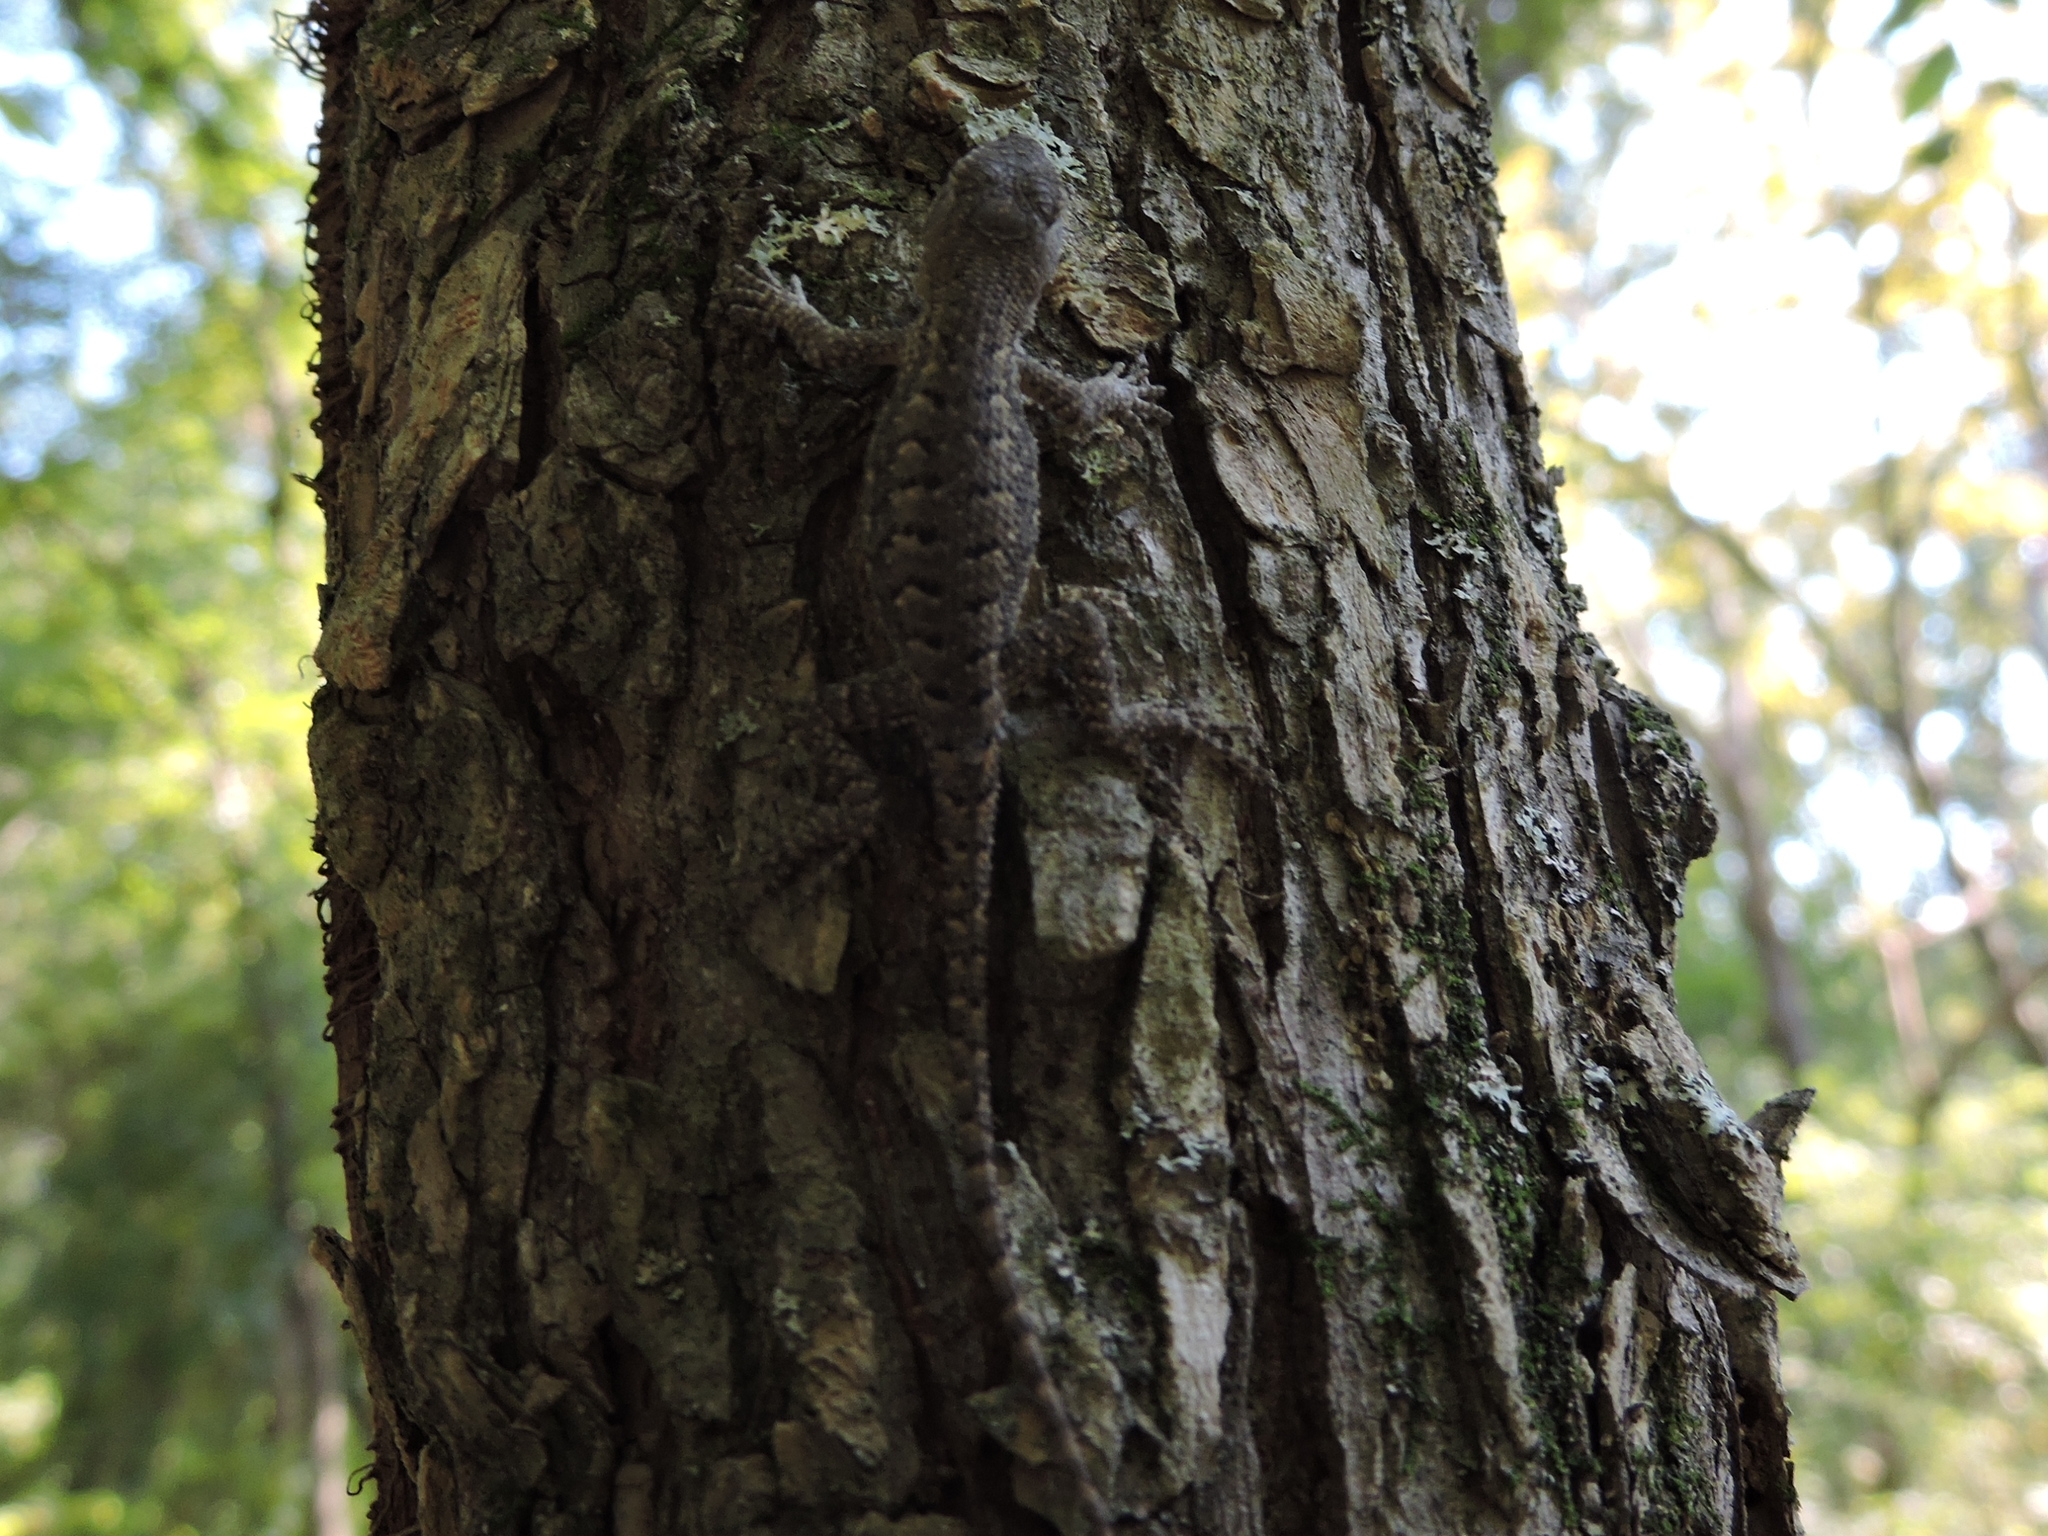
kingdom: Animalia
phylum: Chordata
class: Squamata
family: Phrynosomatidae
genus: Sceloporus
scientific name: Sceloporus consobrinus
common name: Southern prairie lizard
